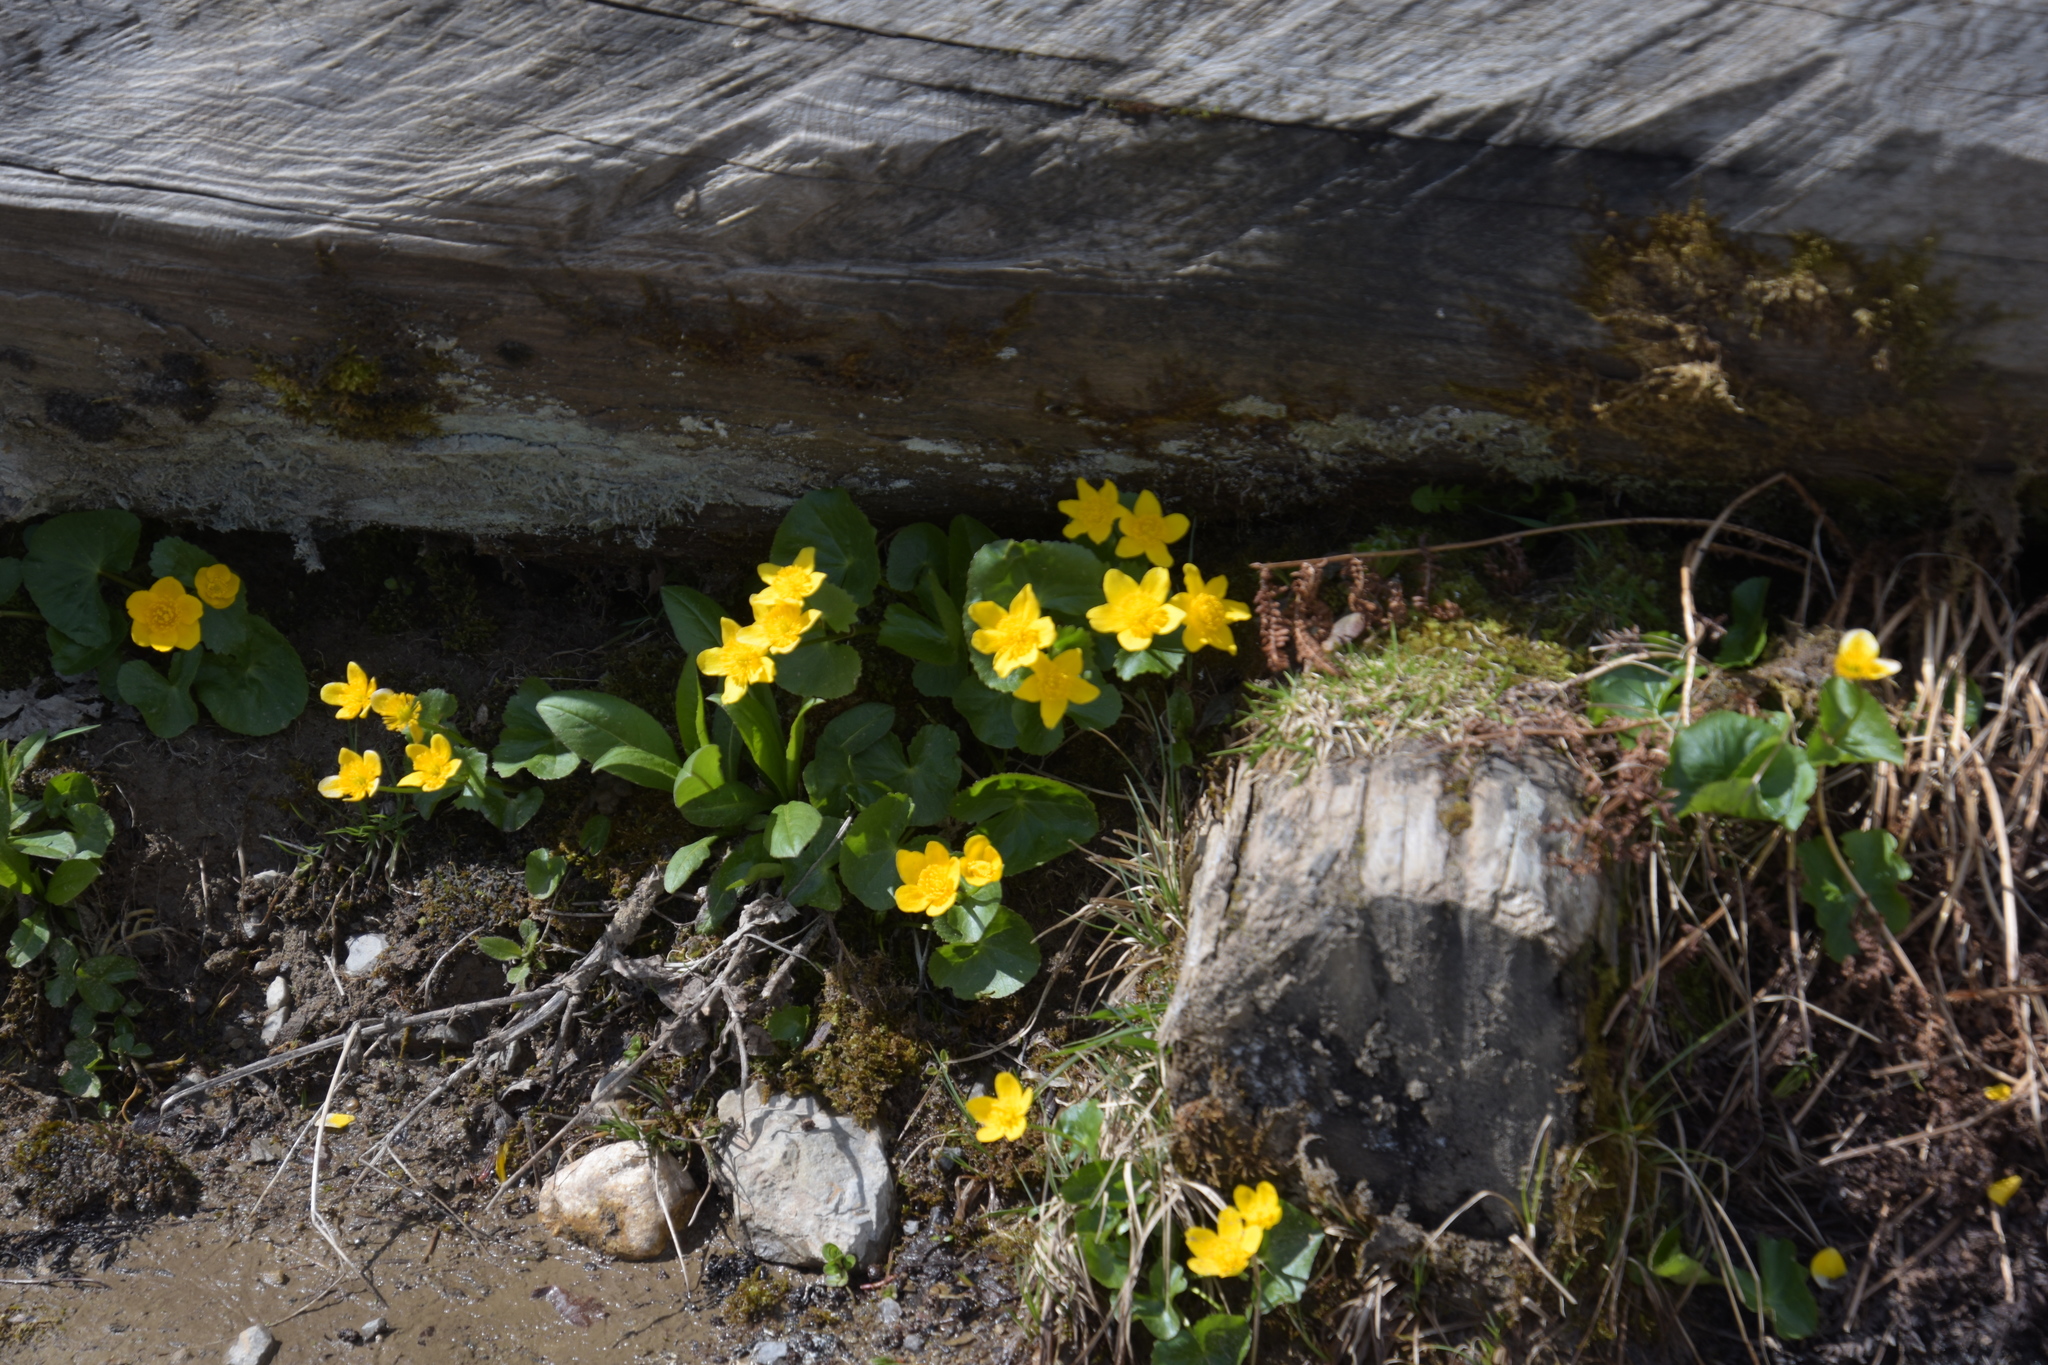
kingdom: Plantae
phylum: Tracheophyta
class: Magnoliopsida
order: Ranunculales
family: Ranunculaceae
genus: Caltha
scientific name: Caltha palustris
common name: Marsh marigold
